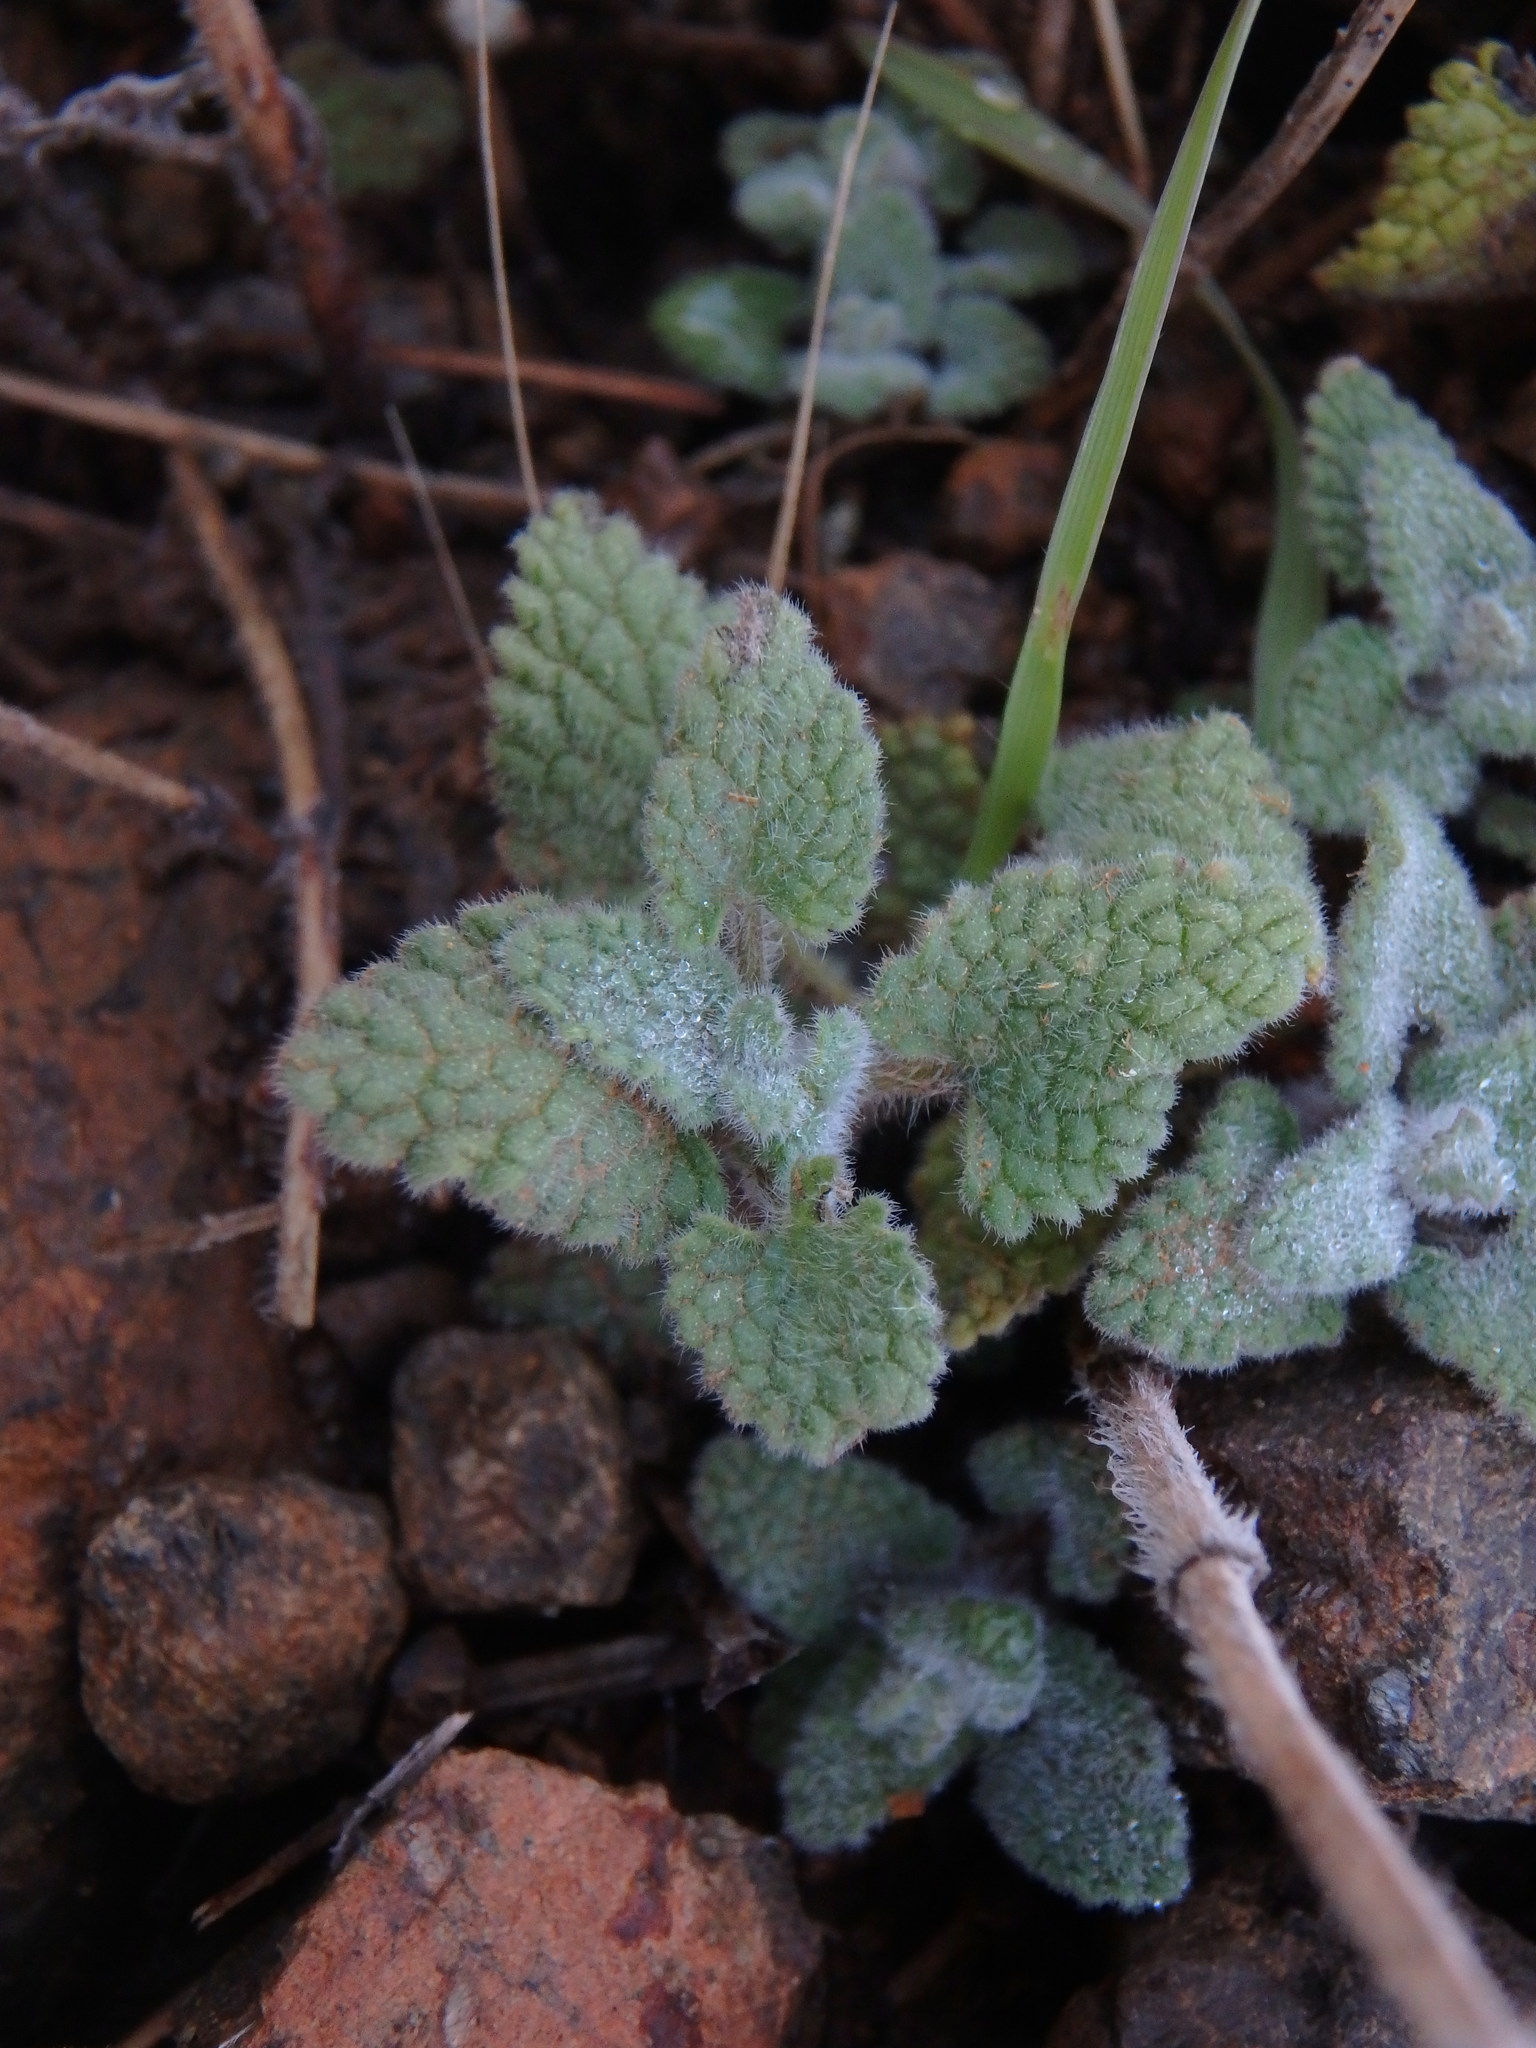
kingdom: Plantae
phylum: Tracheophyta
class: Magnoliopsida
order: Lamiales
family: Lamiaceae
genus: Nepeta
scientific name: Nepeta italica
